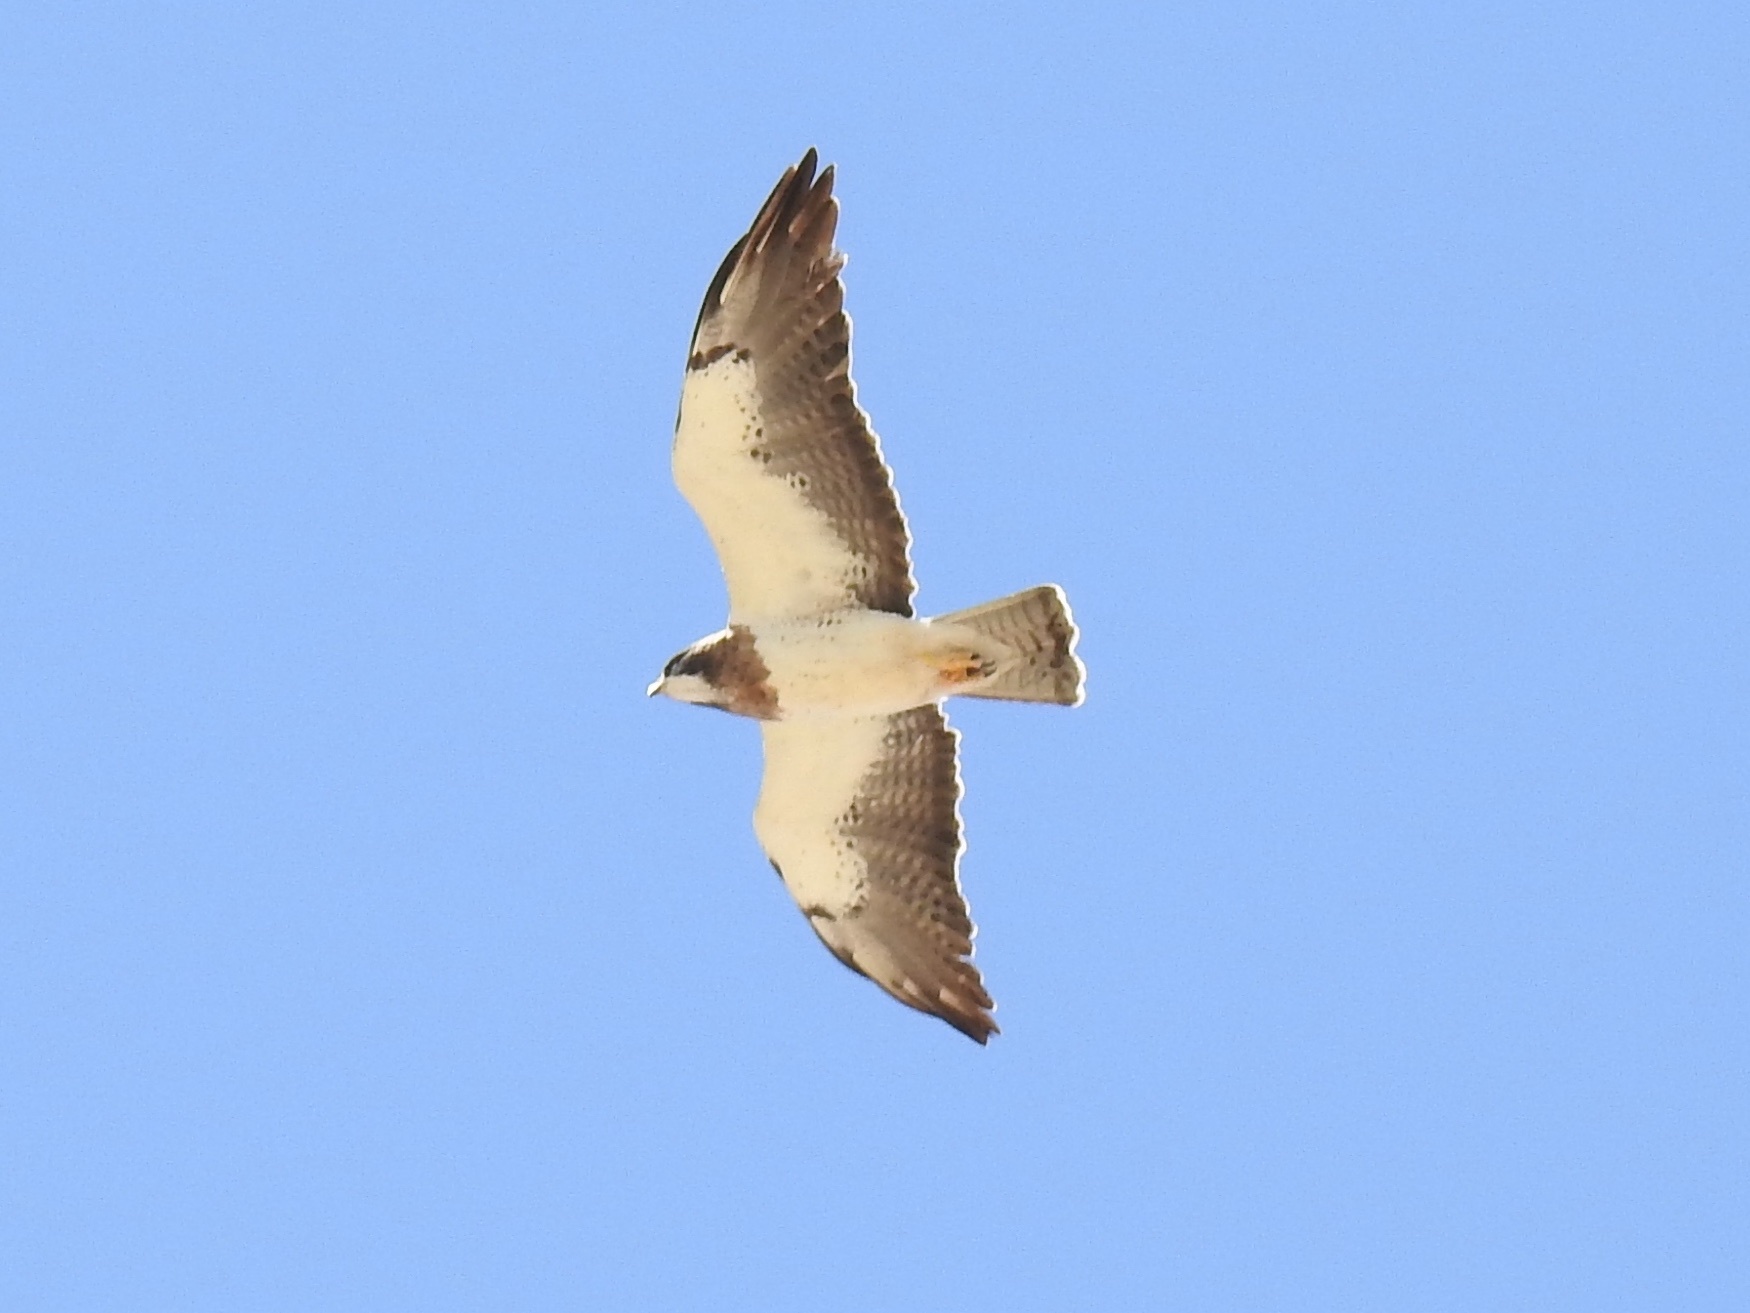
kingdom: Animalia
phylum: Chordata
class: Aves
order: Accipitriformes
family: Accipitridae
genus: Buteo
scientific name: Buteo swainsoni
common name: Swainson's hawk
